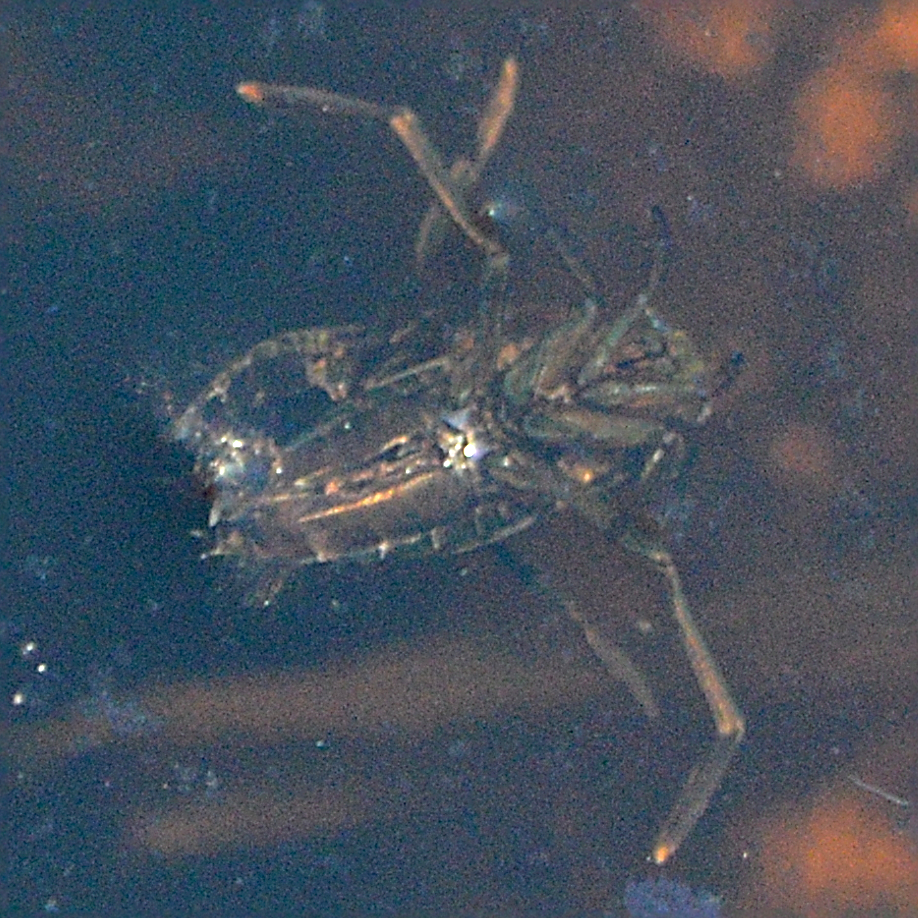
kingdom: Animalia
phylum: Arthropoda
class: Insecta
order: Hemiptera
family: Notonectidae
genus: Notonecta
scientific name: Notonecta
